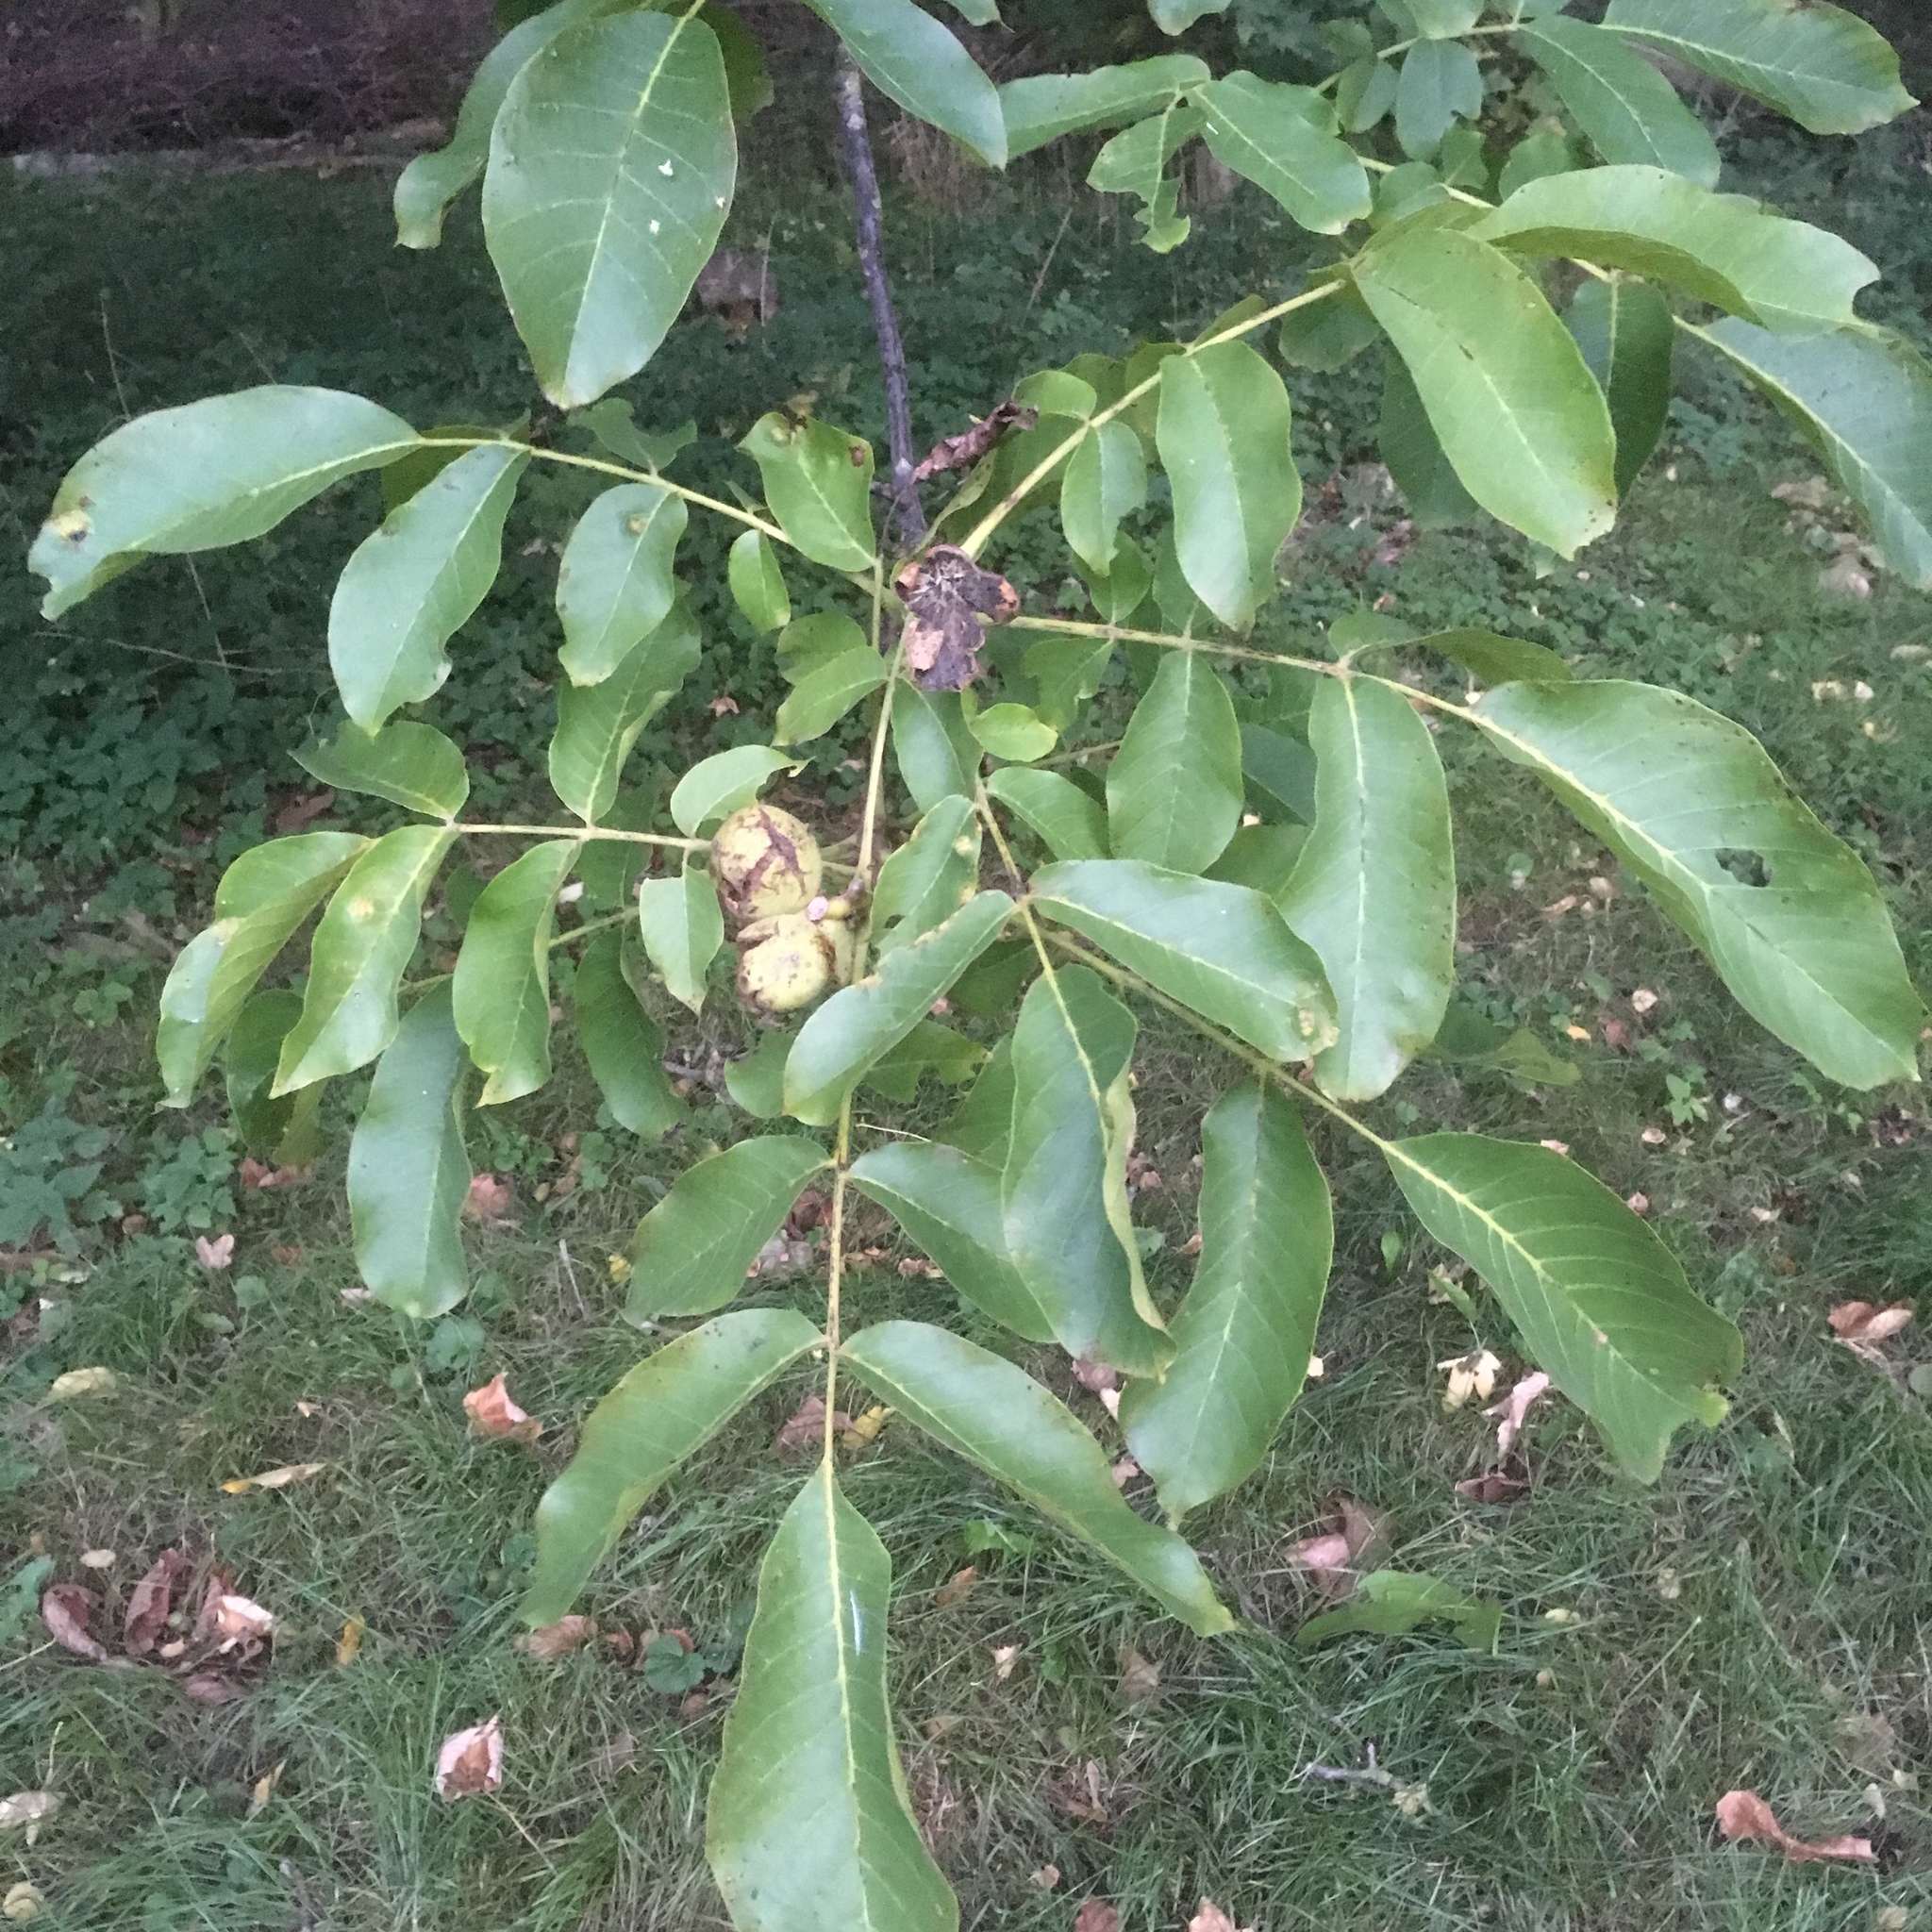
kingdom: Plantae
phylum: Tracheophyta
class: Magnoliopsida
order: Fagales
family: Juglandaceae
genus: Juglans
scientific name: Juglans regia
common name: Walnut
